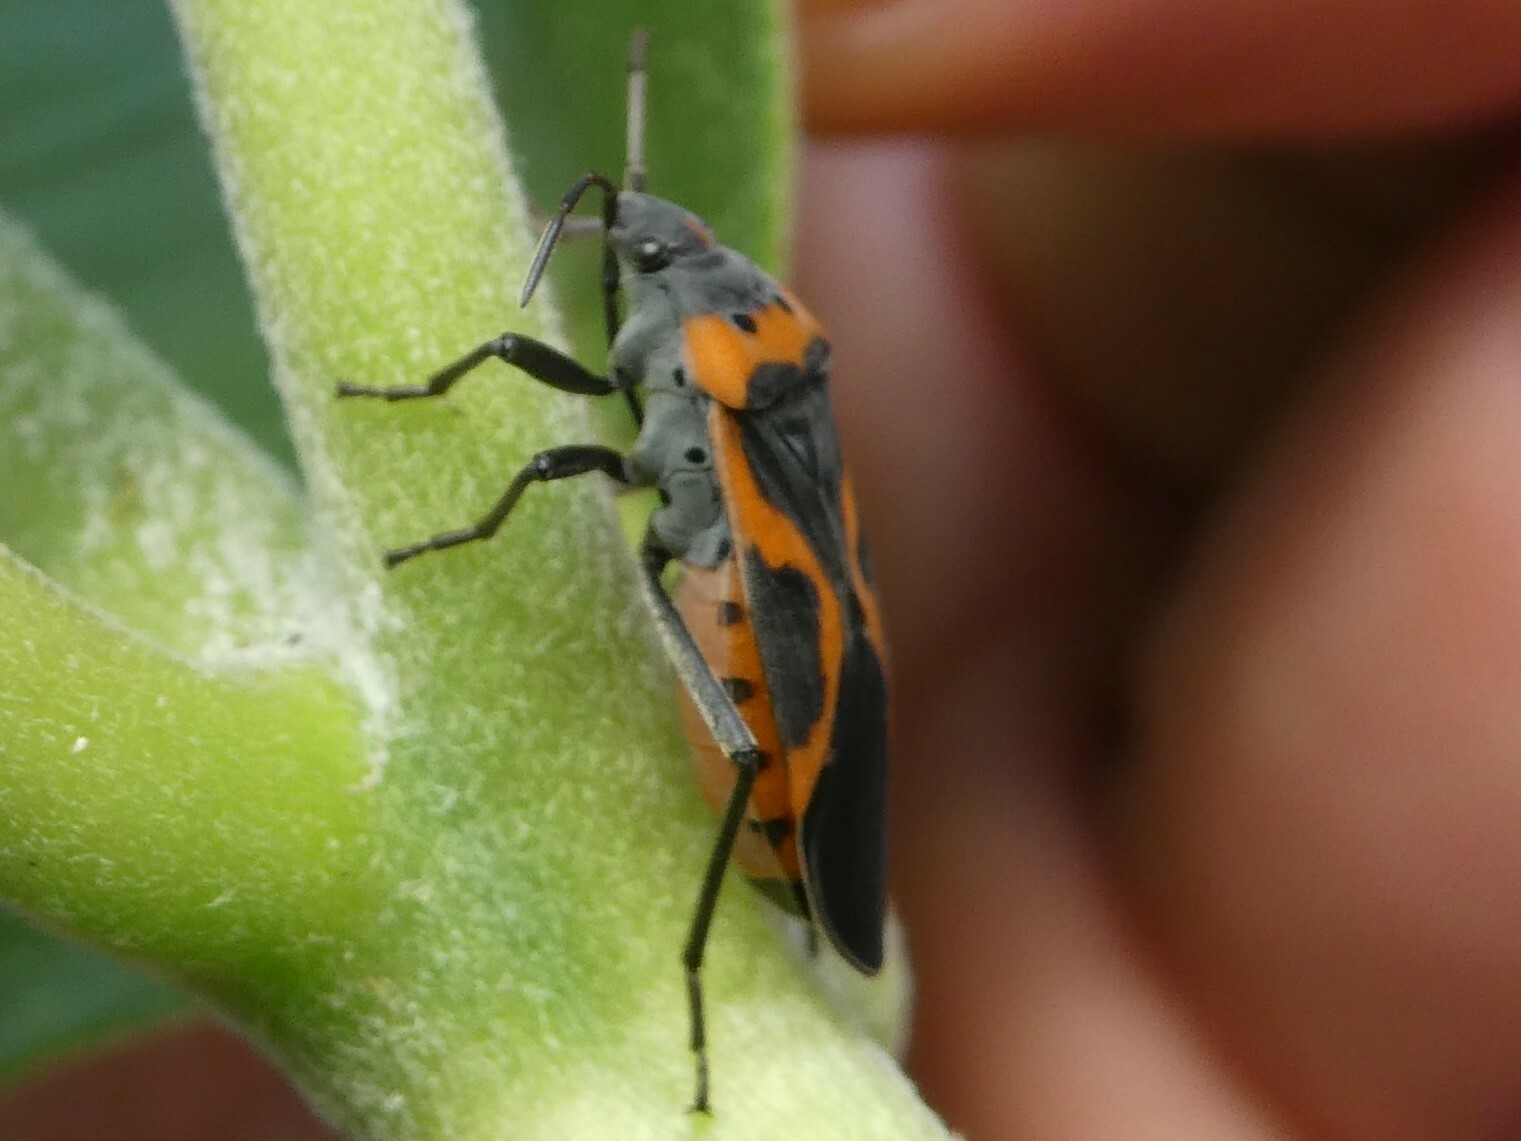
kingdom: Animalia
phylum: Arthropoda
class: Insecta
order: Hemiptera
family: Lygaeidae
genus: Lygaeus
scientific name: Lygaeus kalmii
